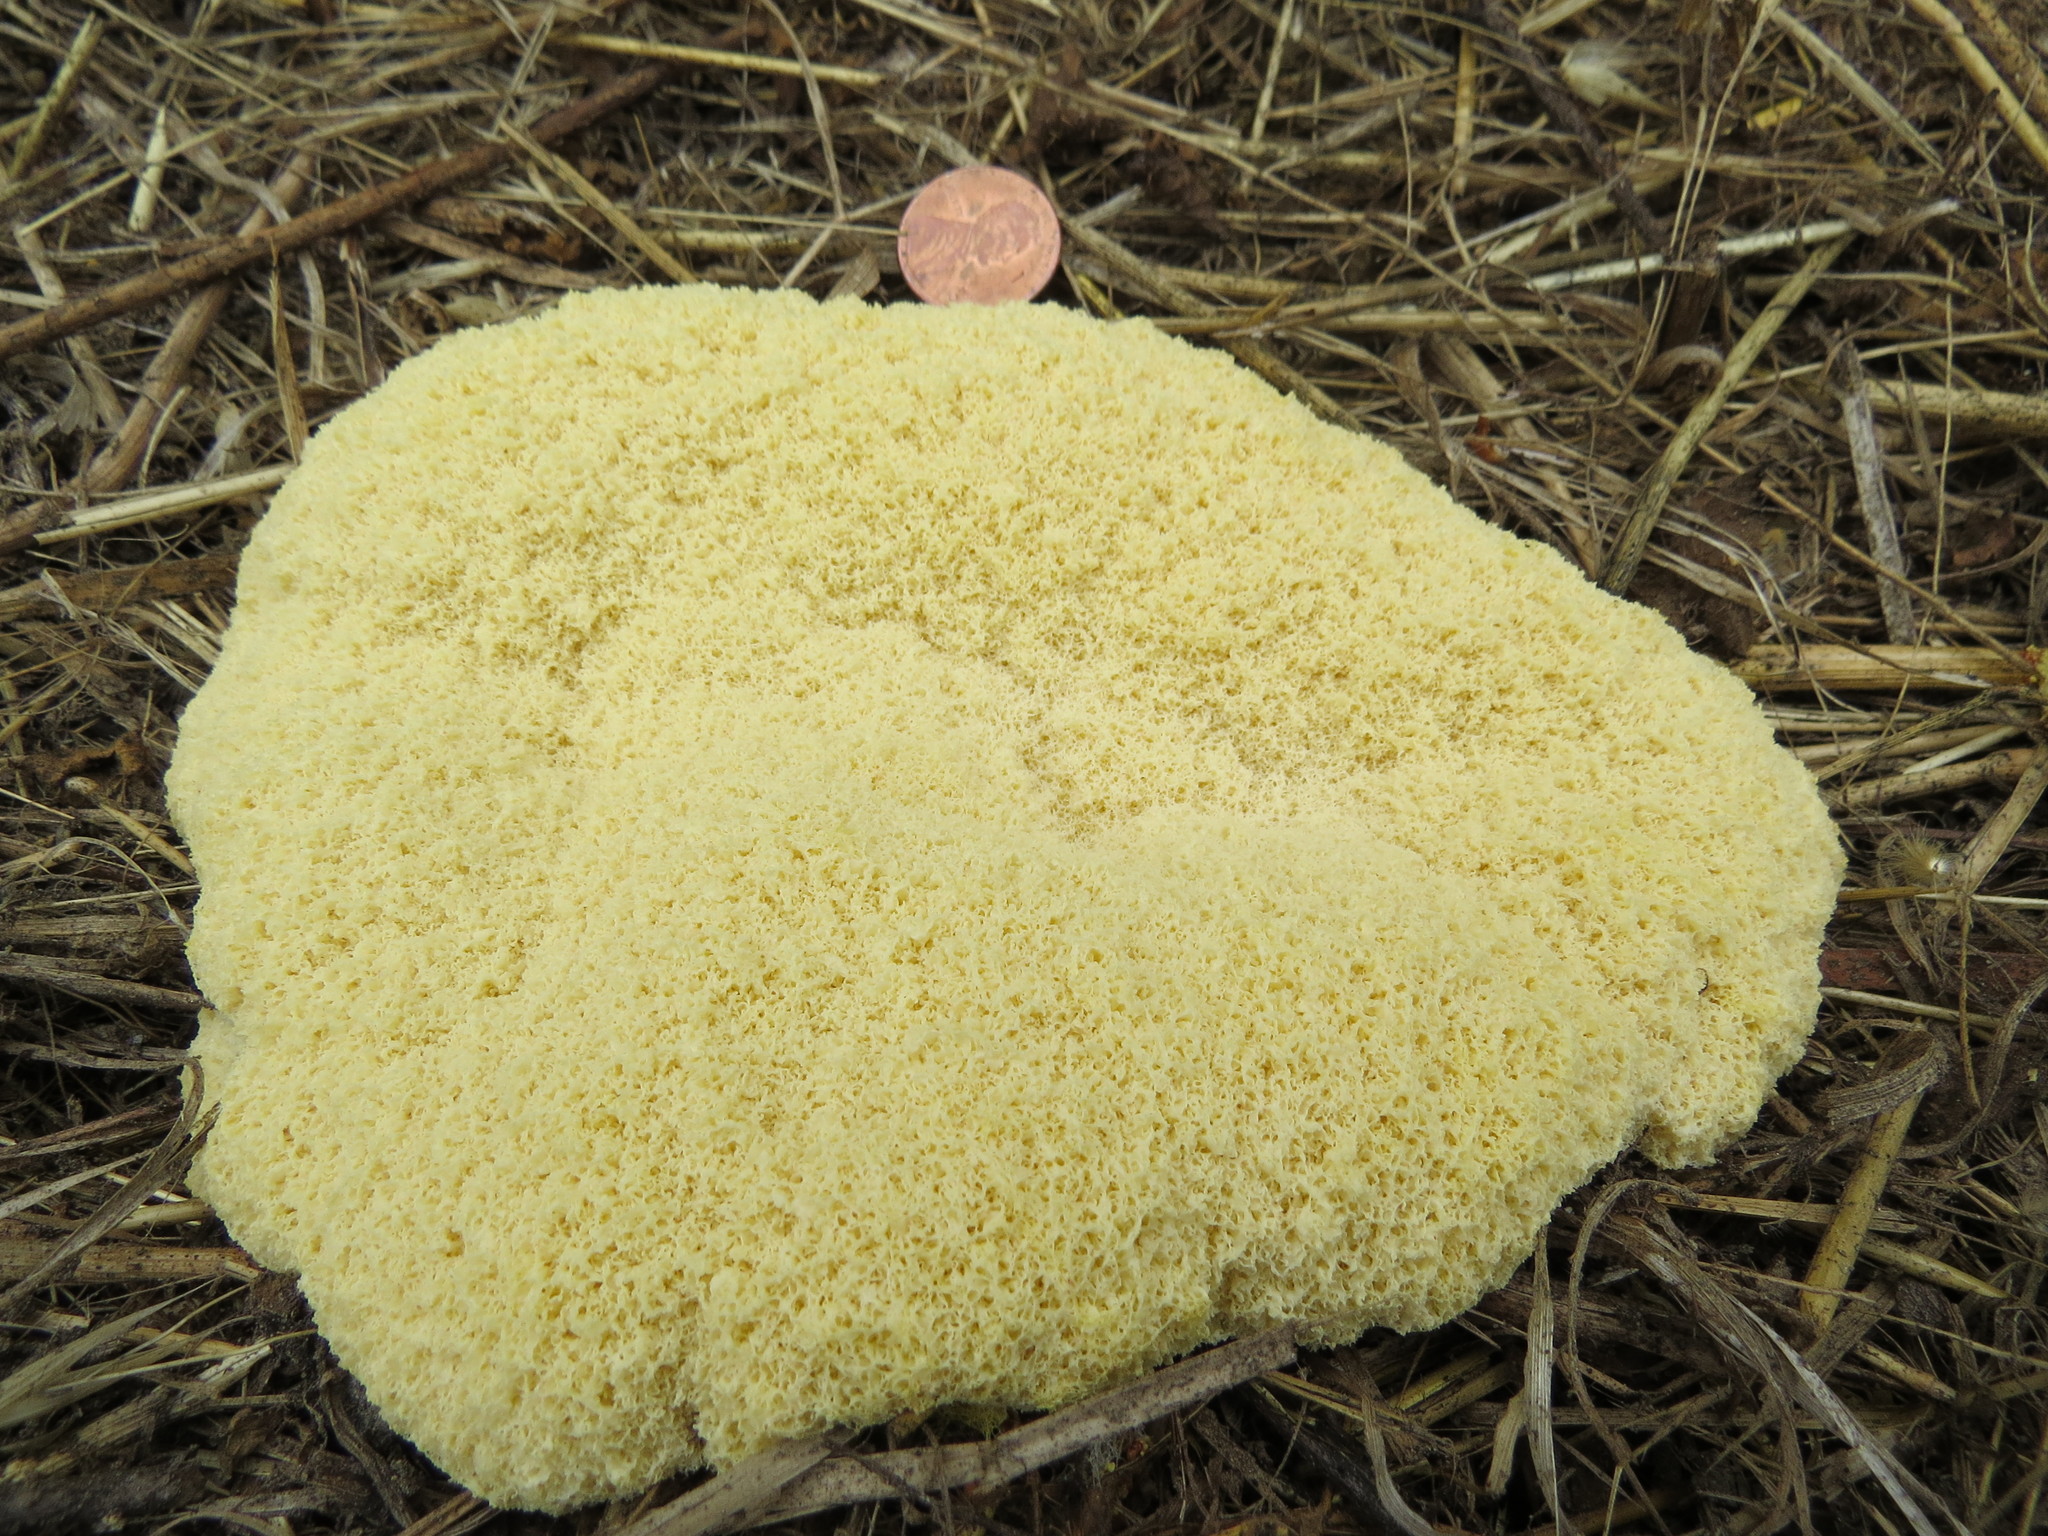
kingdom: Protozoa
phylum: Mycetozoa
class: Myxomycetes
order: Physarales
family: Physaraceae
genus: Fuligo
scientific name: Fuligo septica
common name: Dog vomit slime mold
